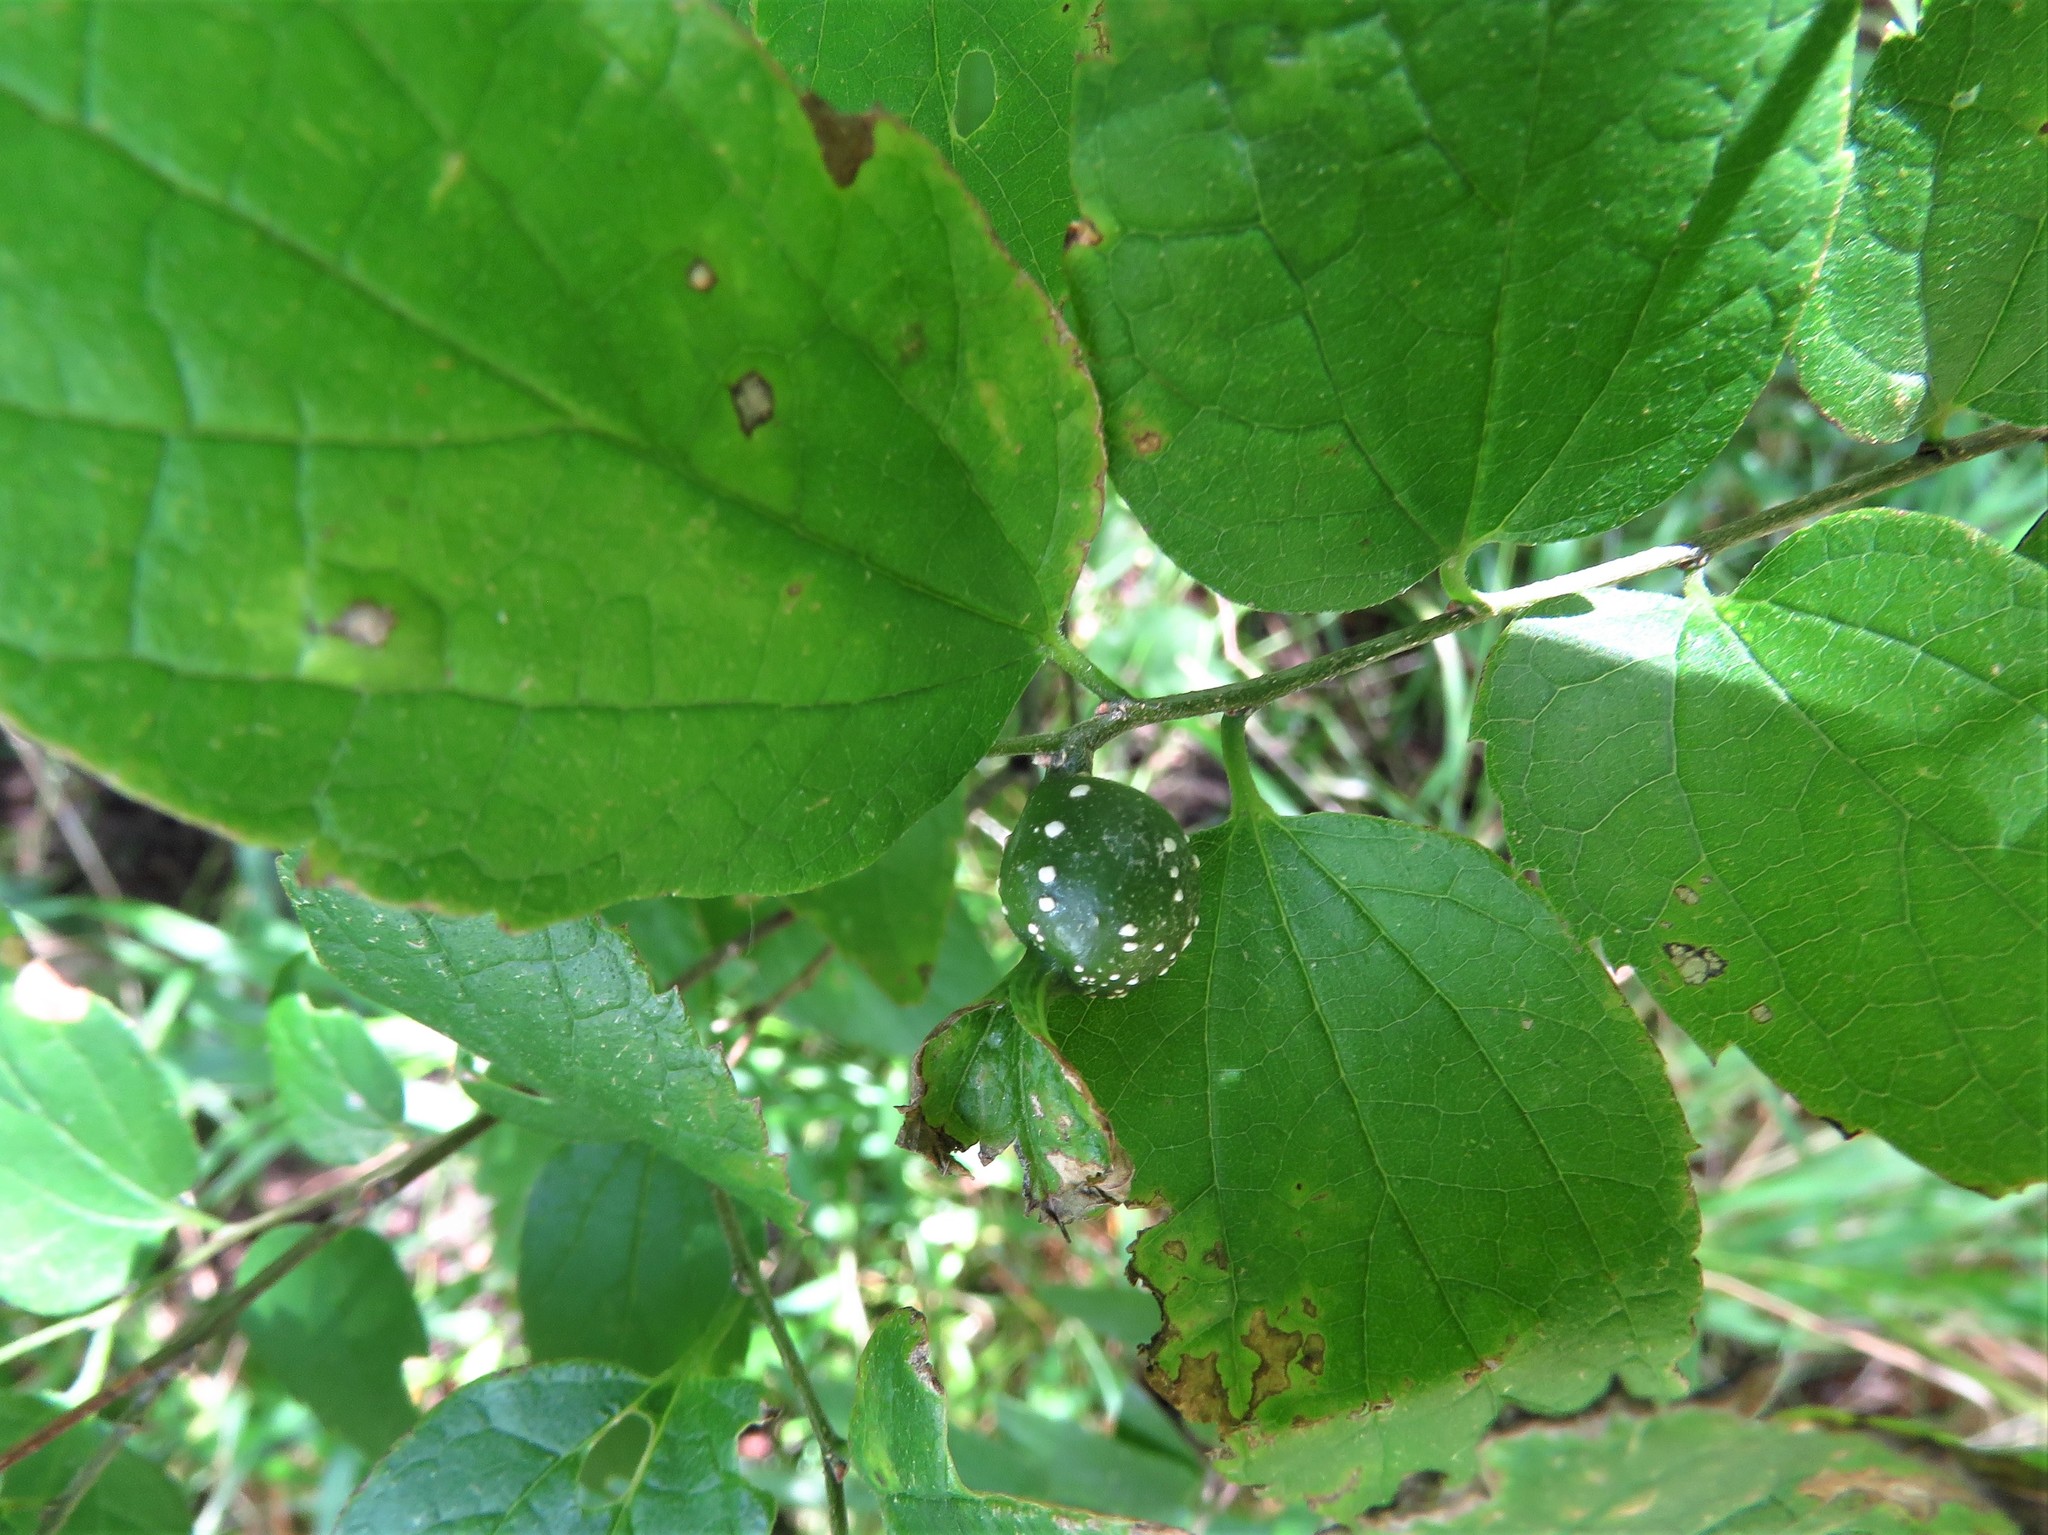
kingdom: Animalia
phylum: Arthropoda
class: Insecta
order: Hemiptera
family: Aphalaridae
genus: Pachypsylla
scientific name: Pachypsylla venusta
